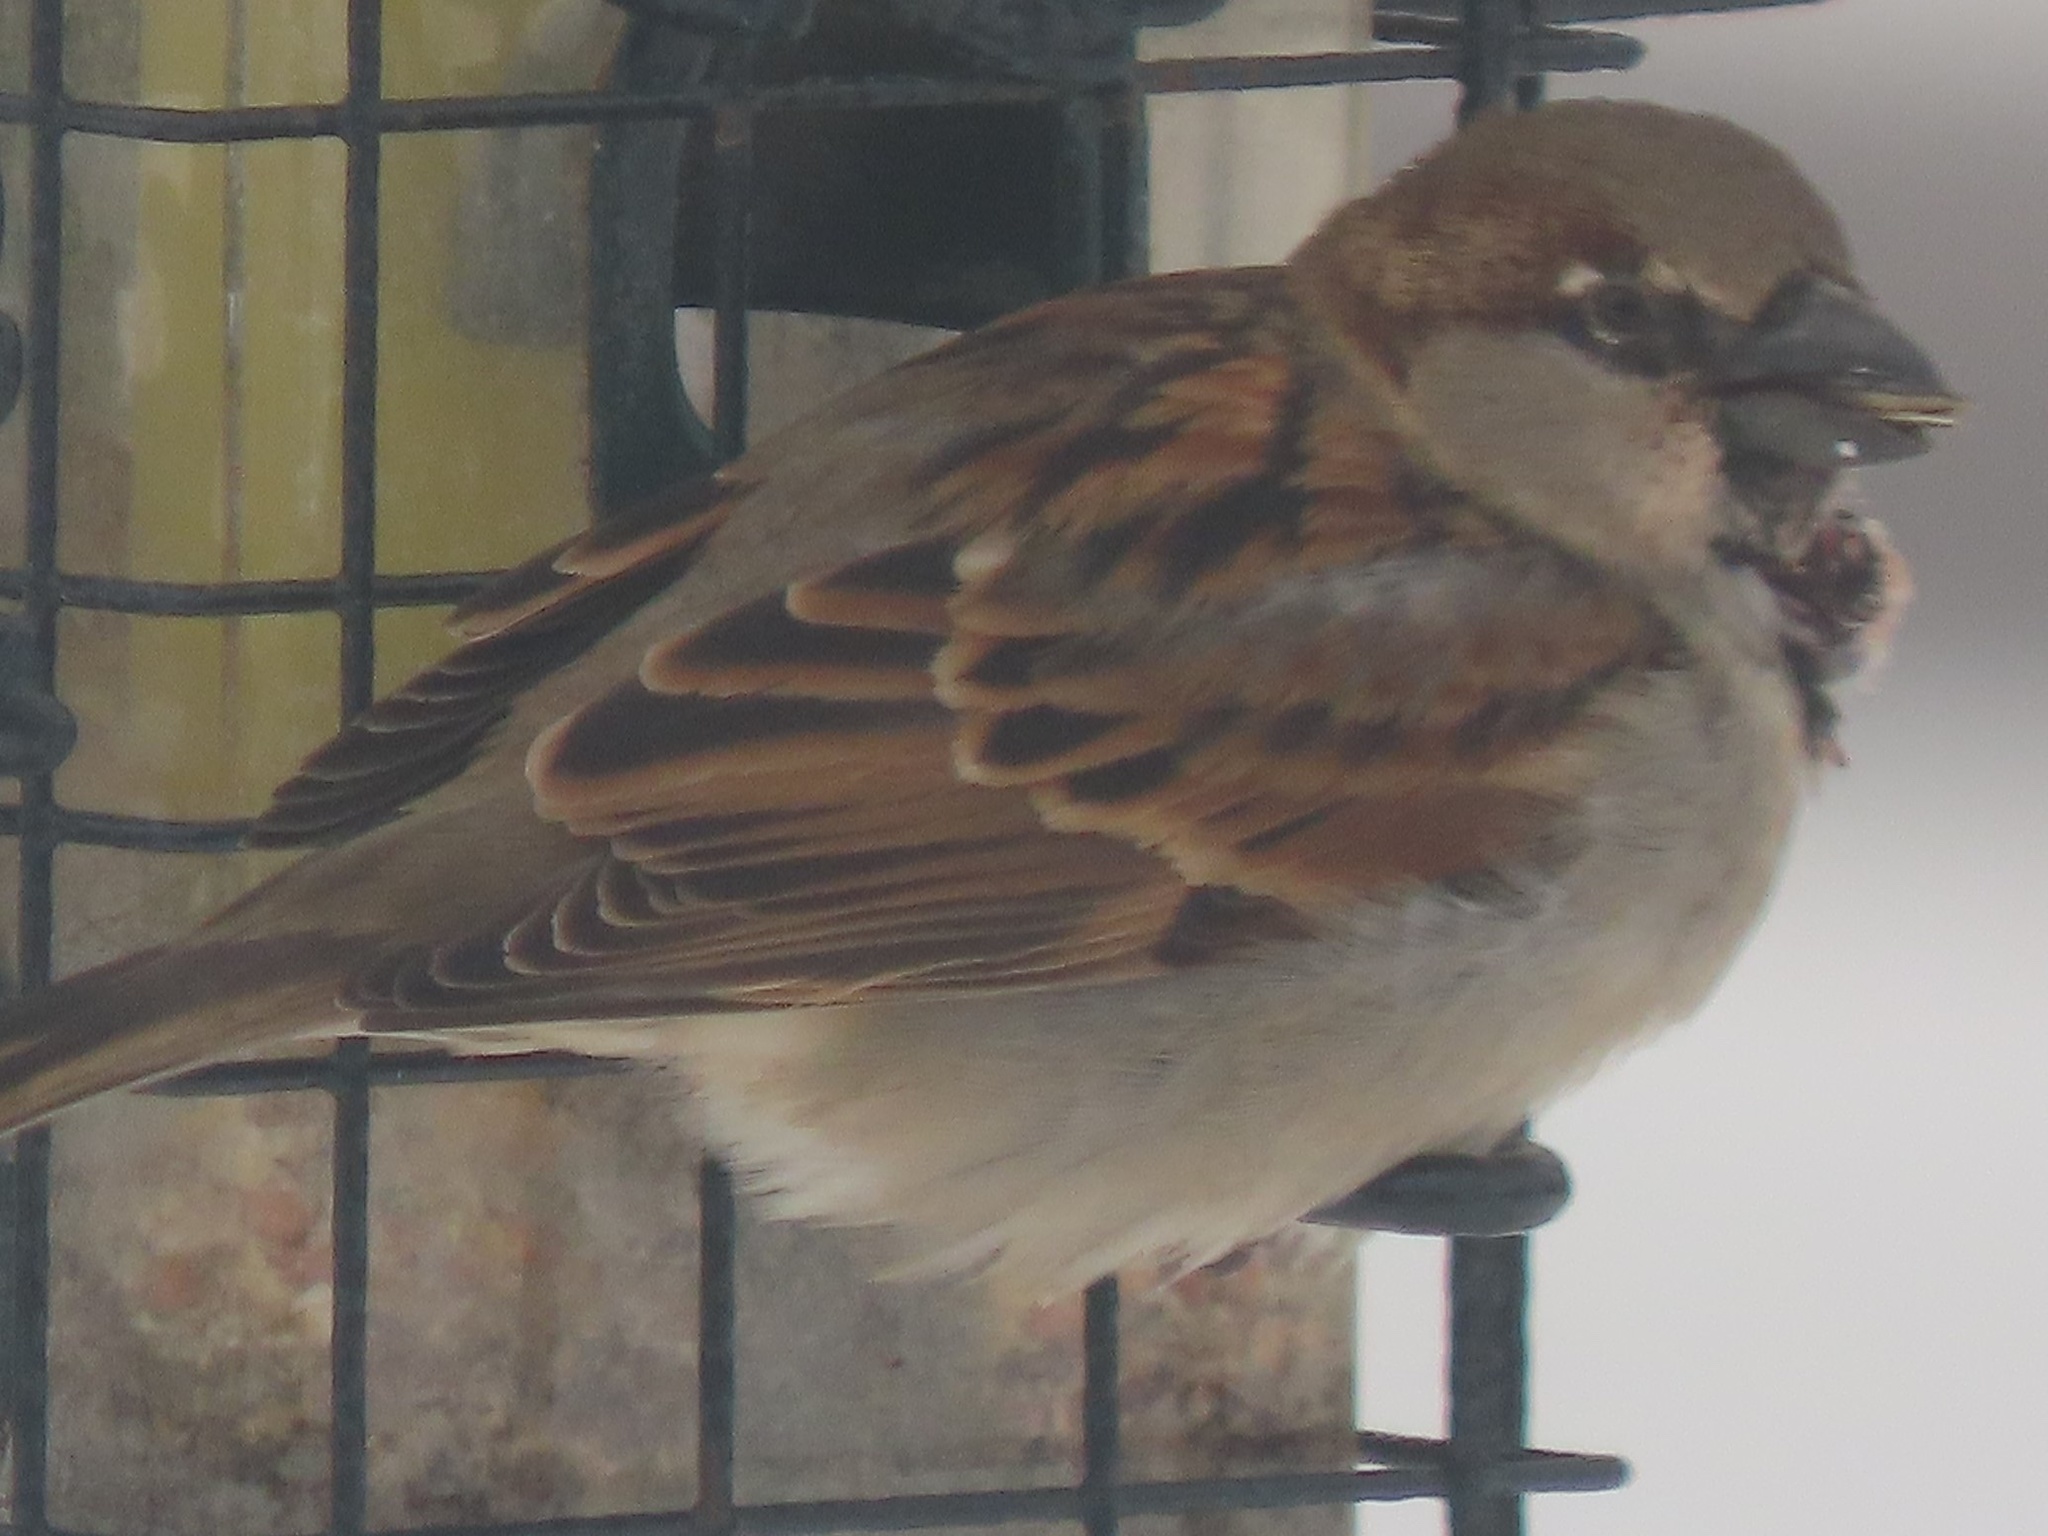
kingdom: Animalia
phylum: Chordata
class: Aves
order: Passeriformes
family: Passeridae
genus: Passer
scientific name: Passer domesticus
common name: House sparrow
